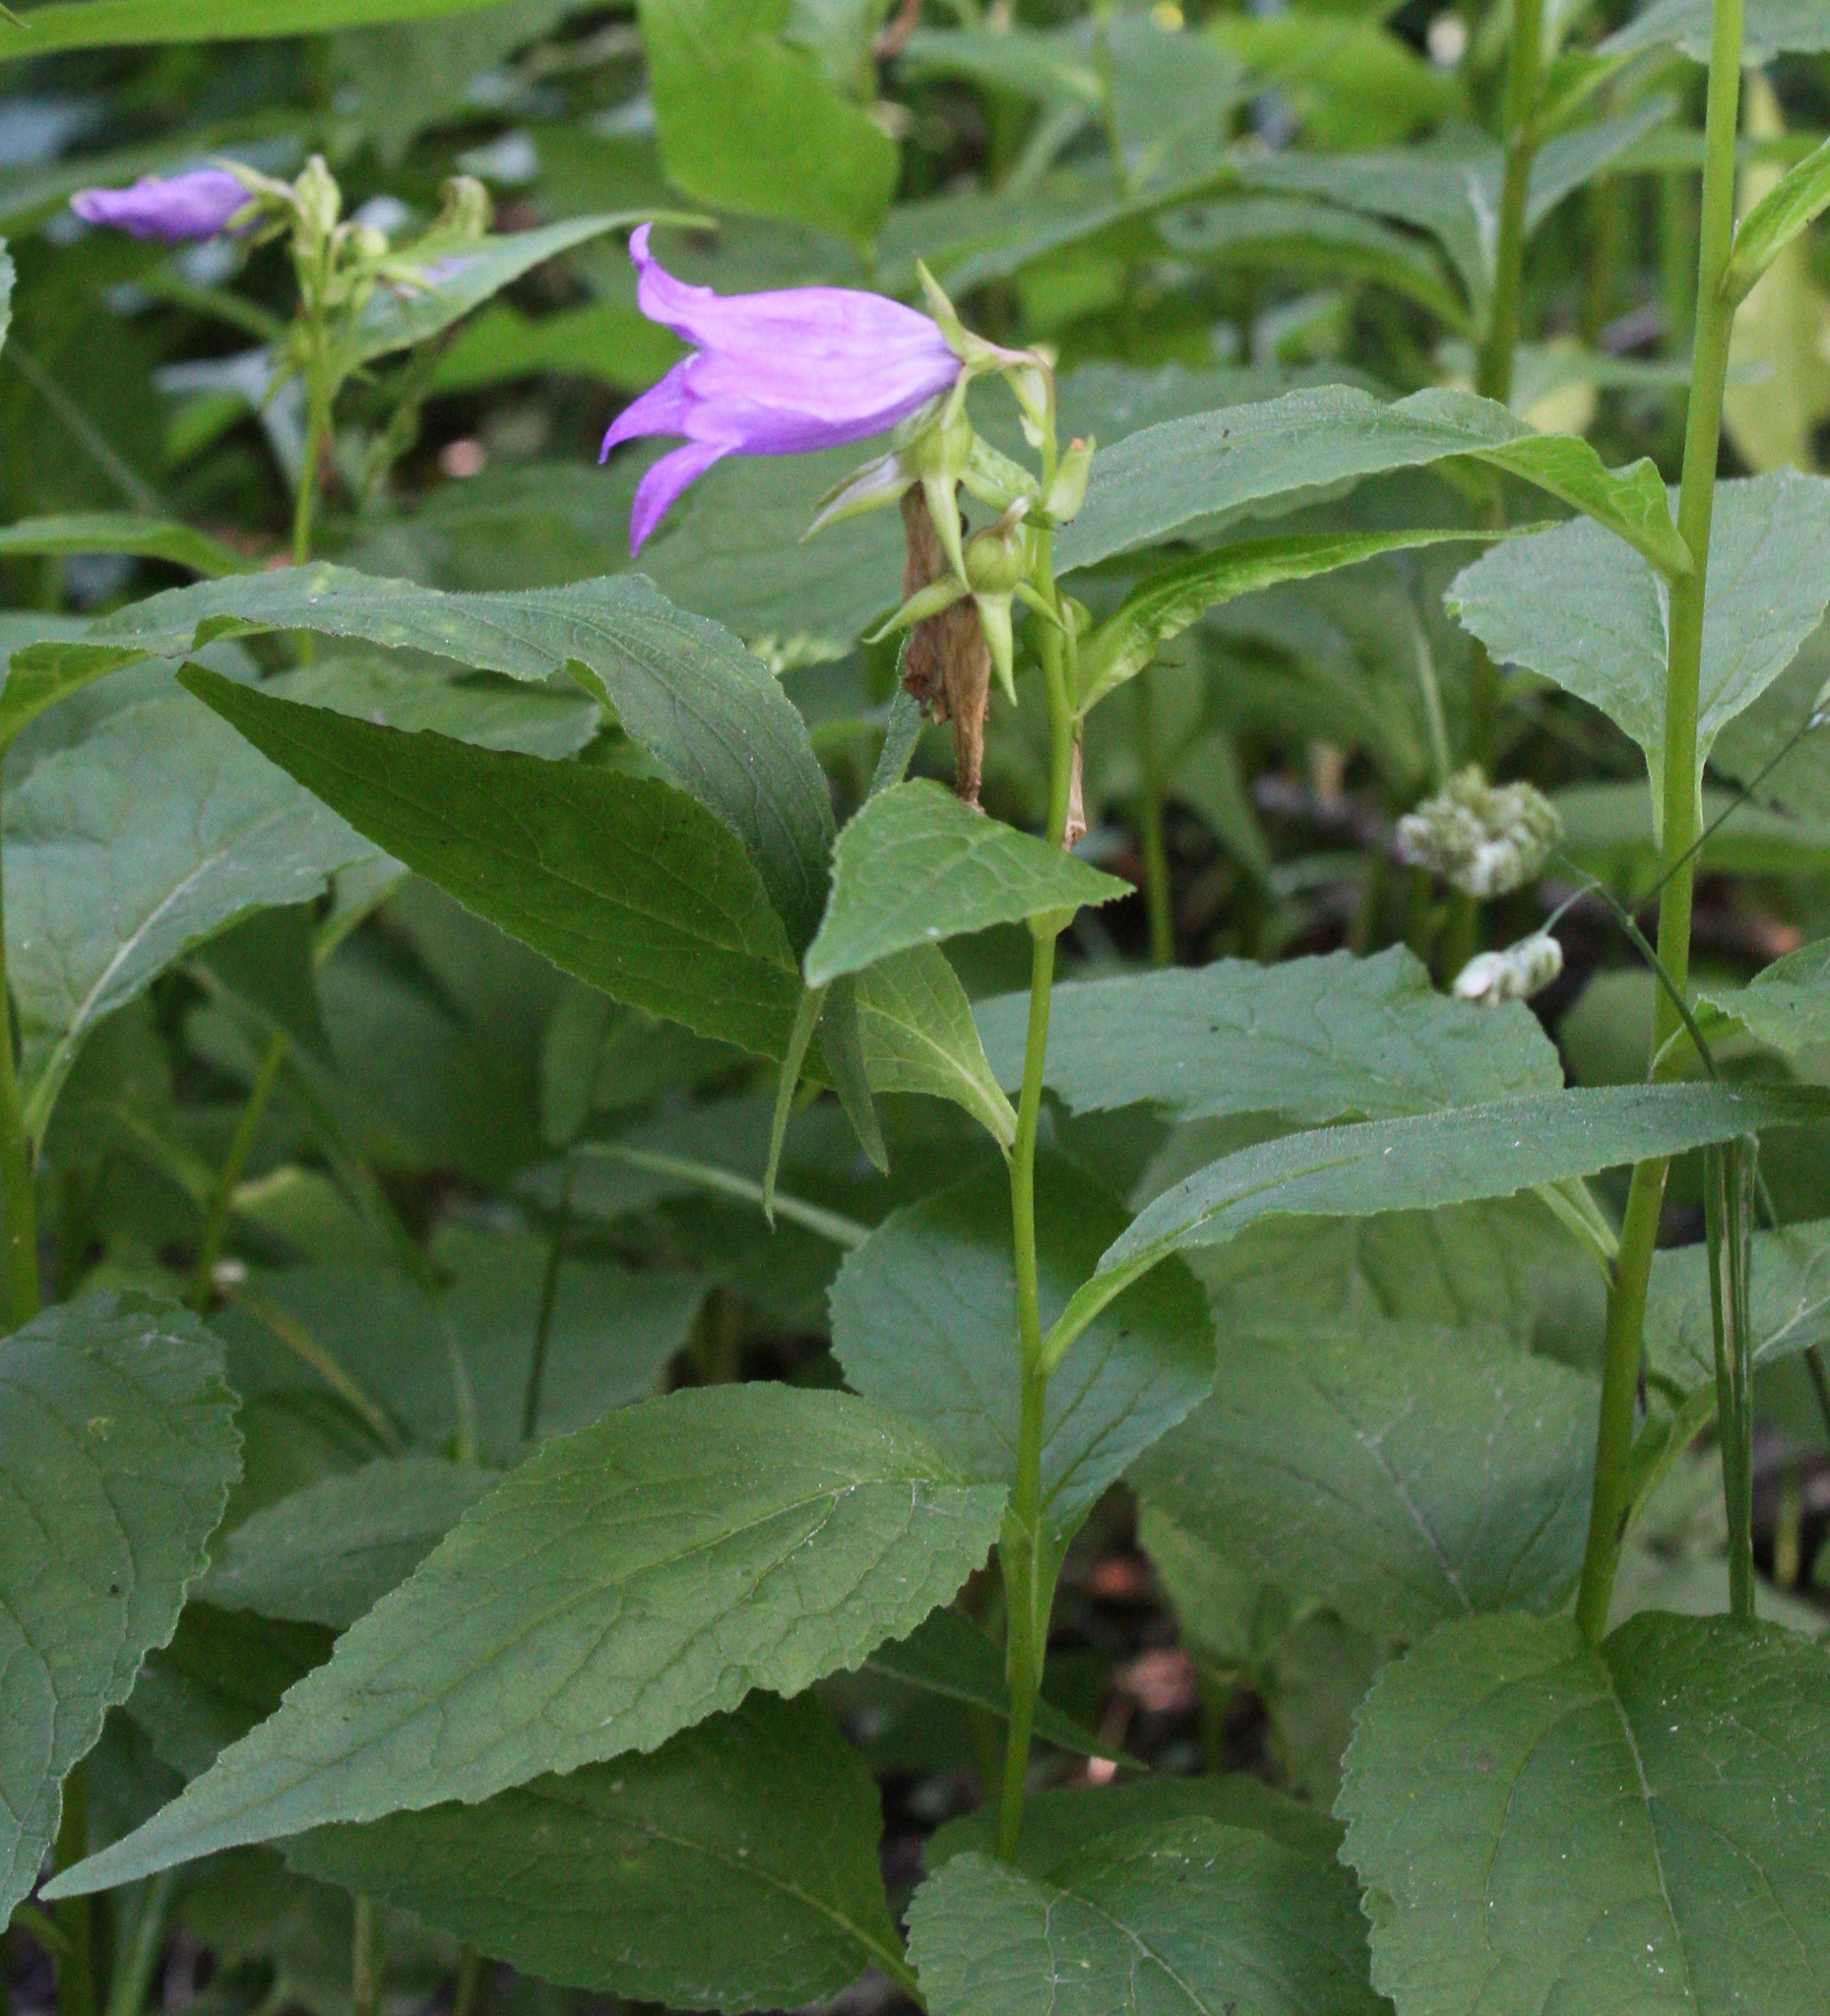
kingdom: Plantae
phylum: Tracheophyta
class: Magnoliopsida
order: Asterales
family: Campanulaceae
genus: Campanula
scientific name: Campanula latifolia
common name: Giant bellflower
